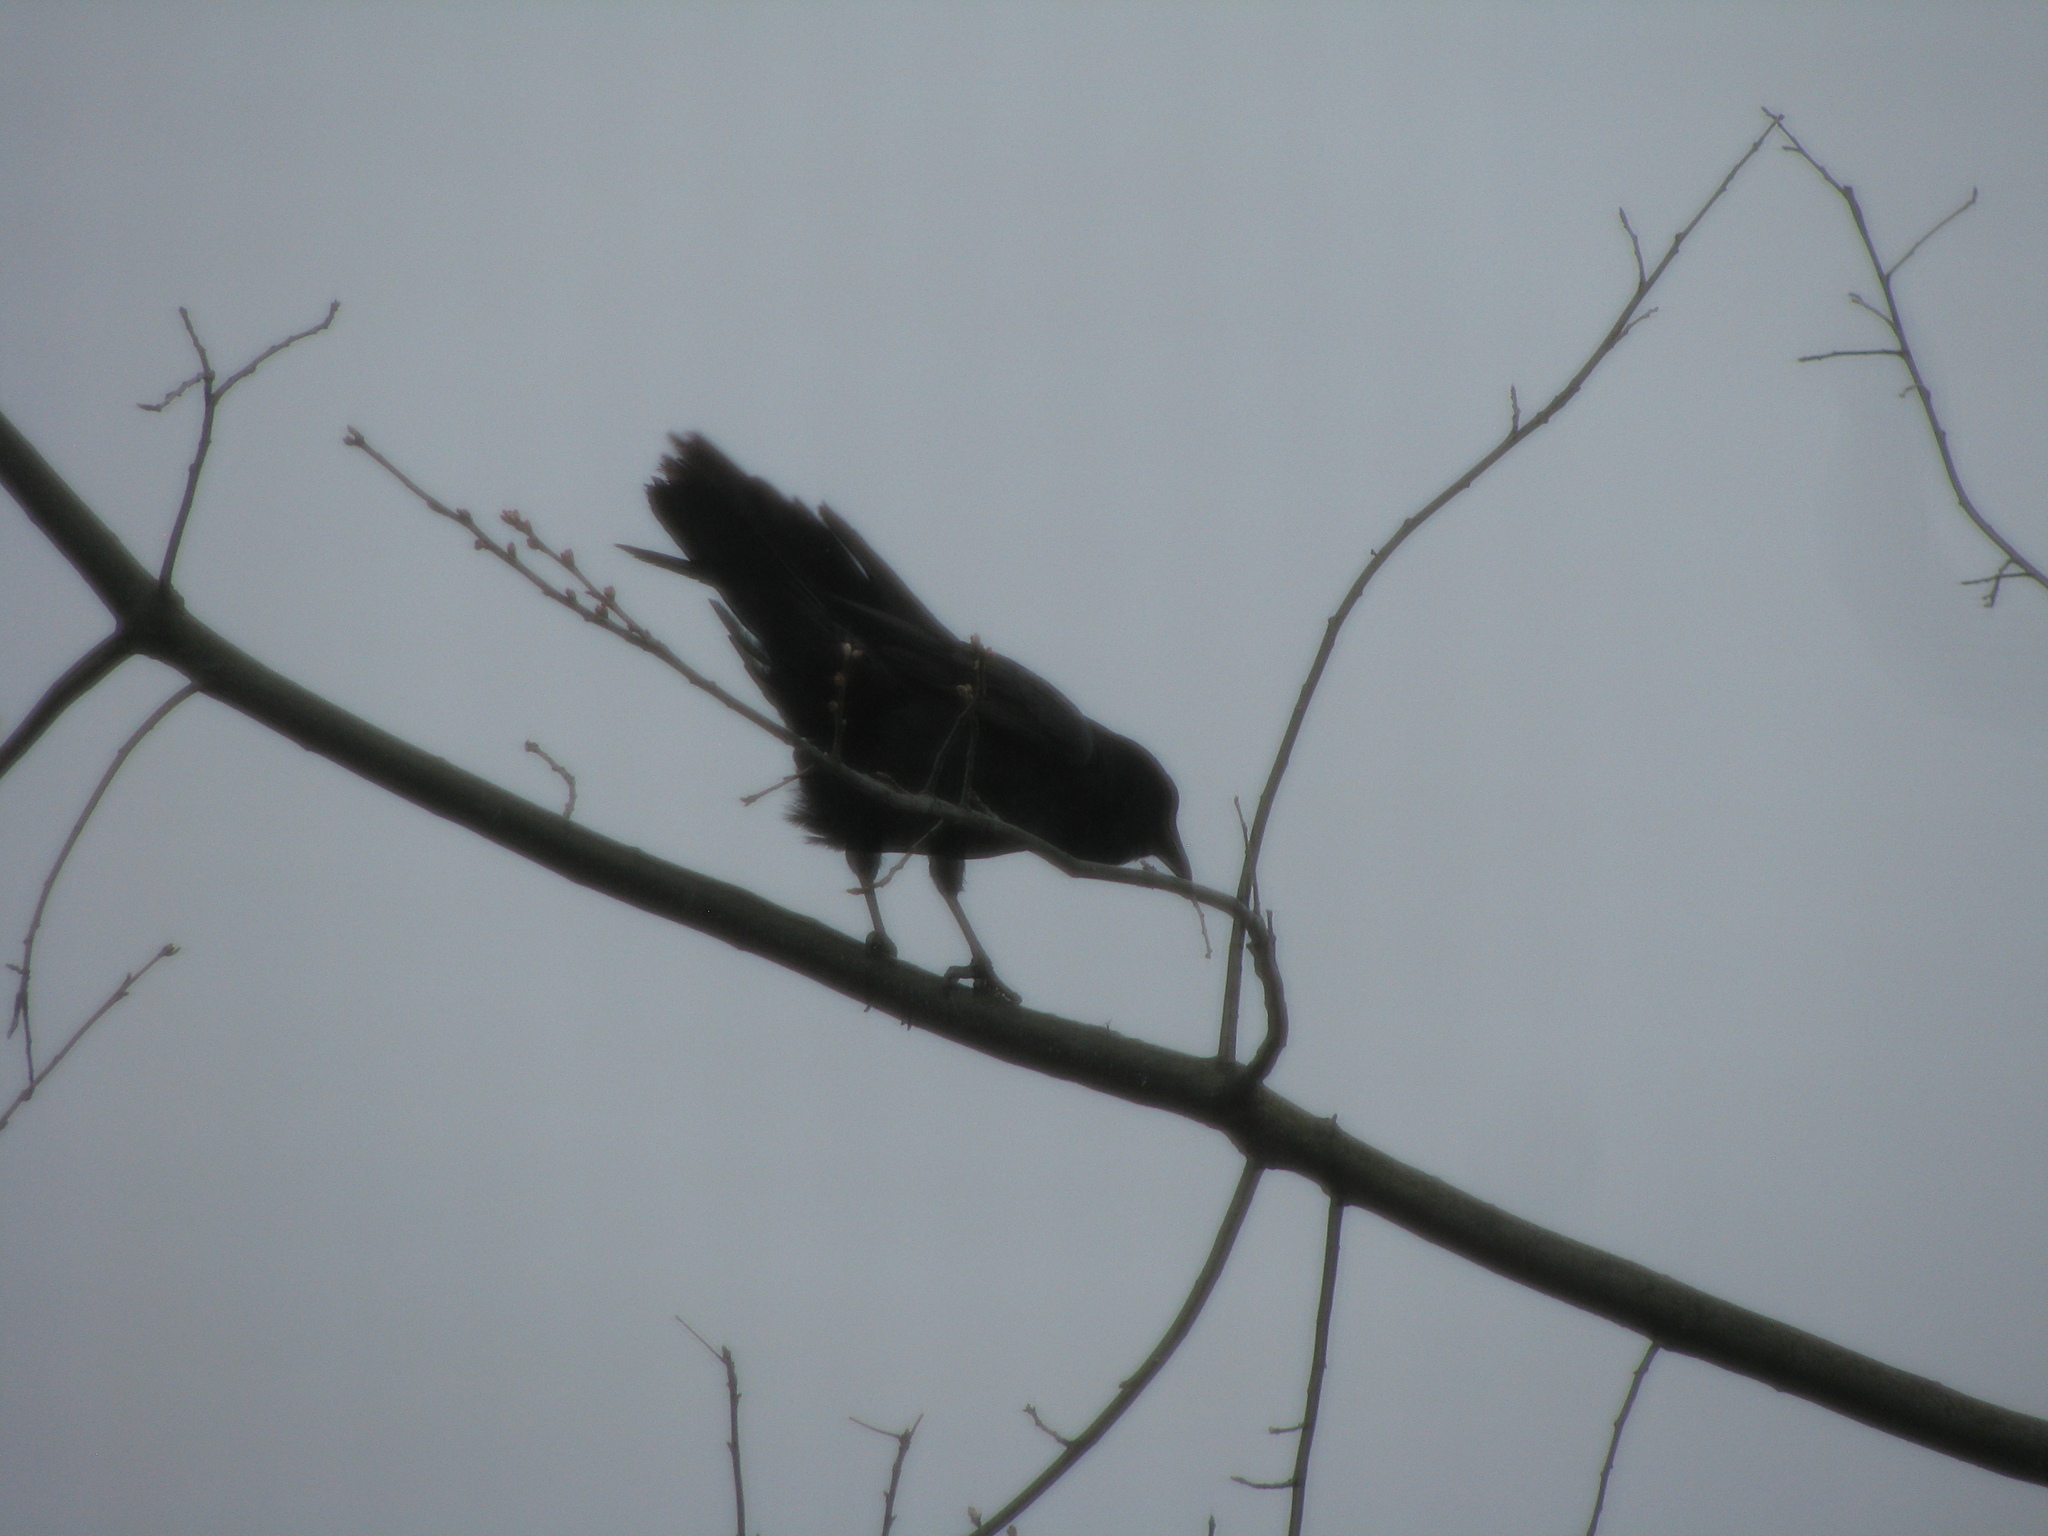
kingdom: Animalia
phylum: Chordata
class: Aves
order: Passeriformes
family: Corvidae
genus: Corvus
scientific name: Corvus brachyrhynchos
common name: American crow
